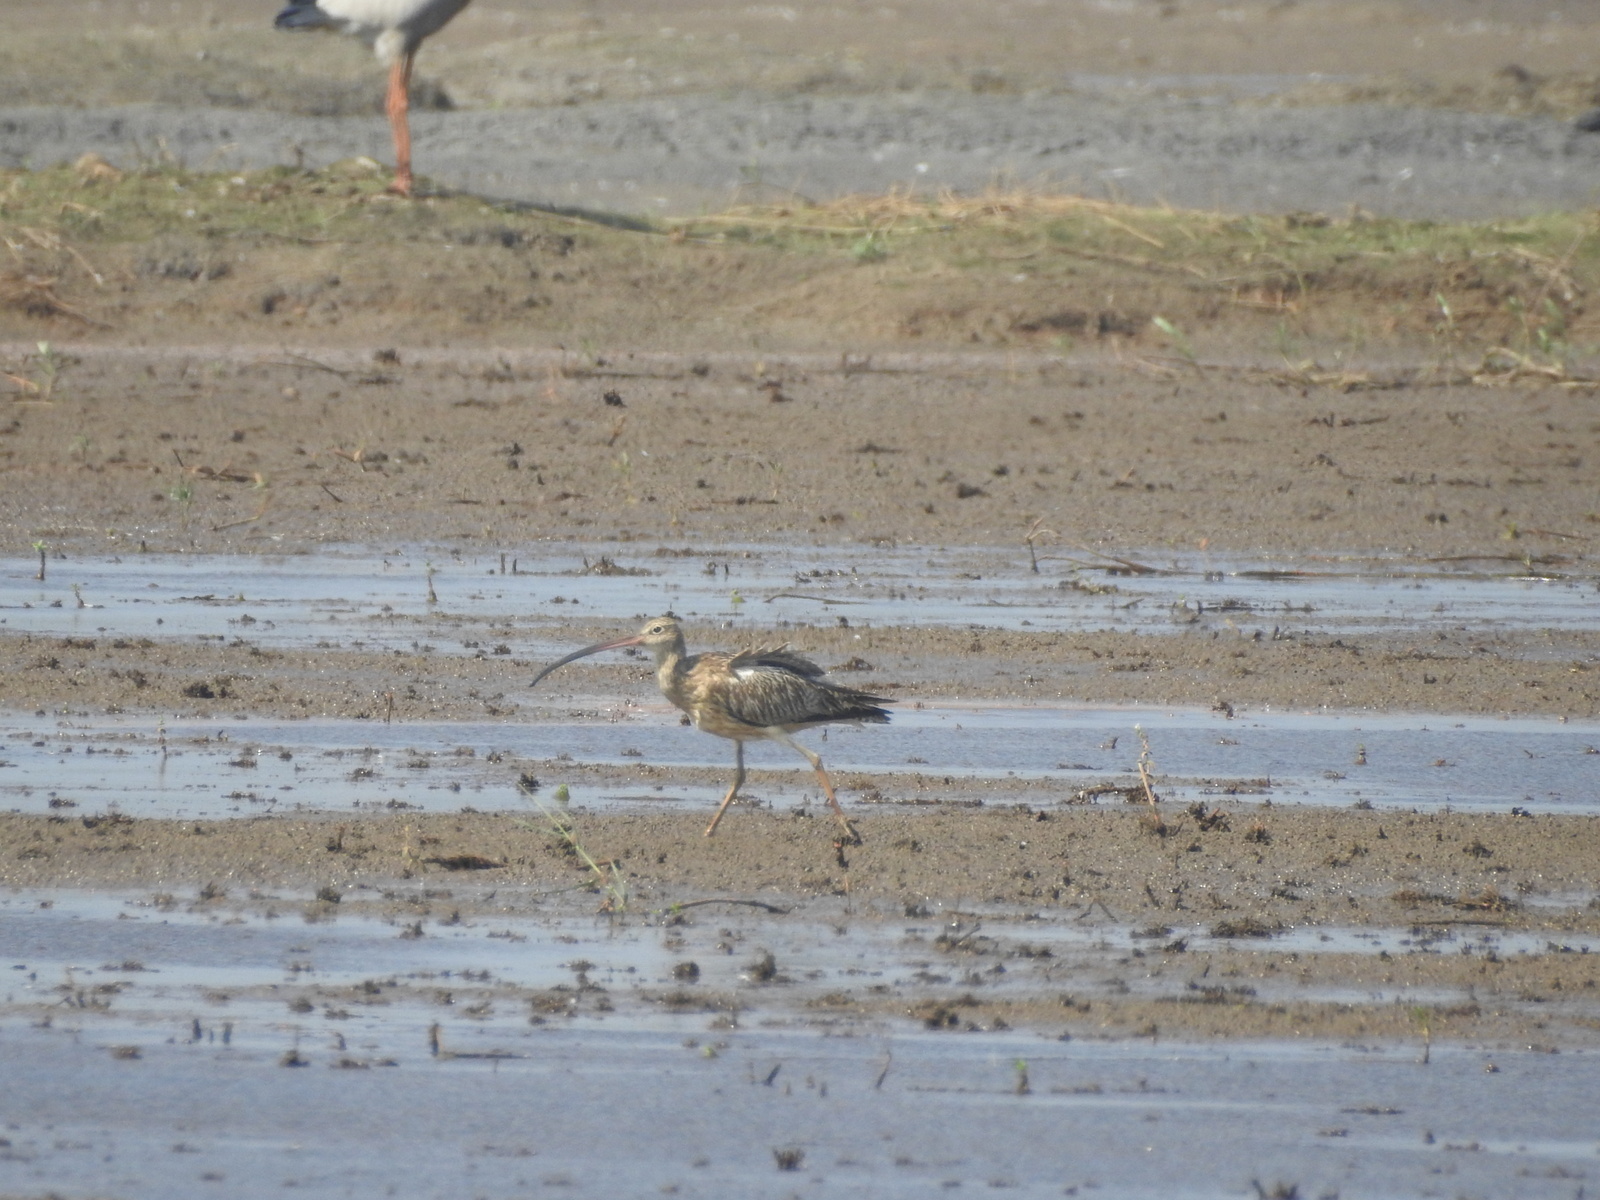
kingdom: Animalia
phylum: Chordata
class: Aves
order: Charadriiformes
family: Scolopacidae
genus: Numenius
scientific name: Numenius arquata
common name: Eurasian curlew
